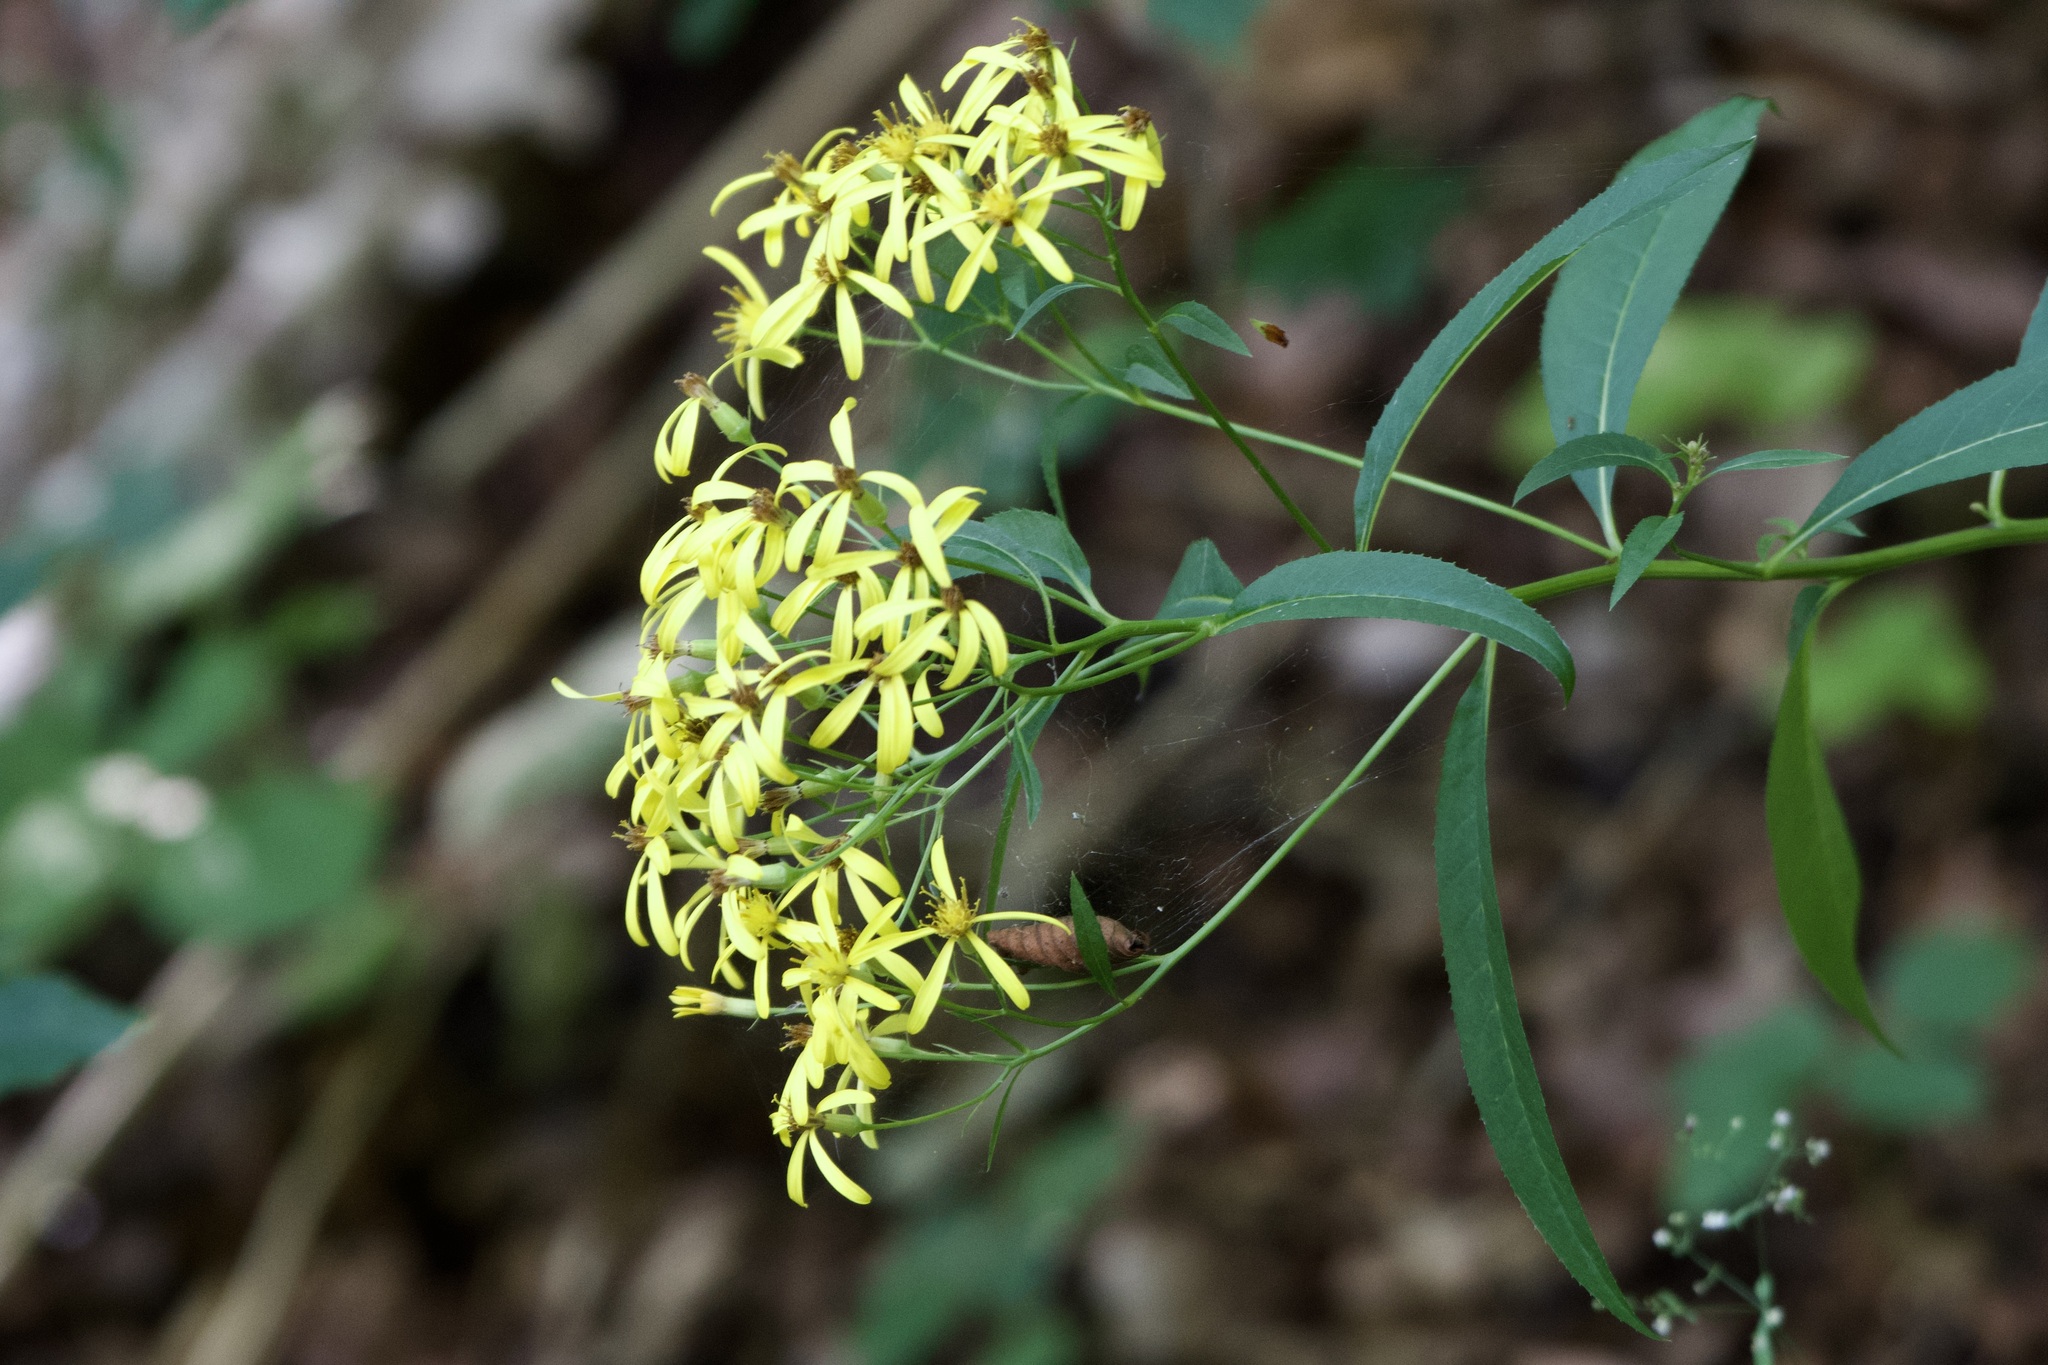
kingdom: Plantae
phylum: Tracheophyta
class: Magnoliopsida
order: Asterales
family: Asteraceae
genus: Senecio
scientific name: Senecio ovatus
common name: Wood ragwort
